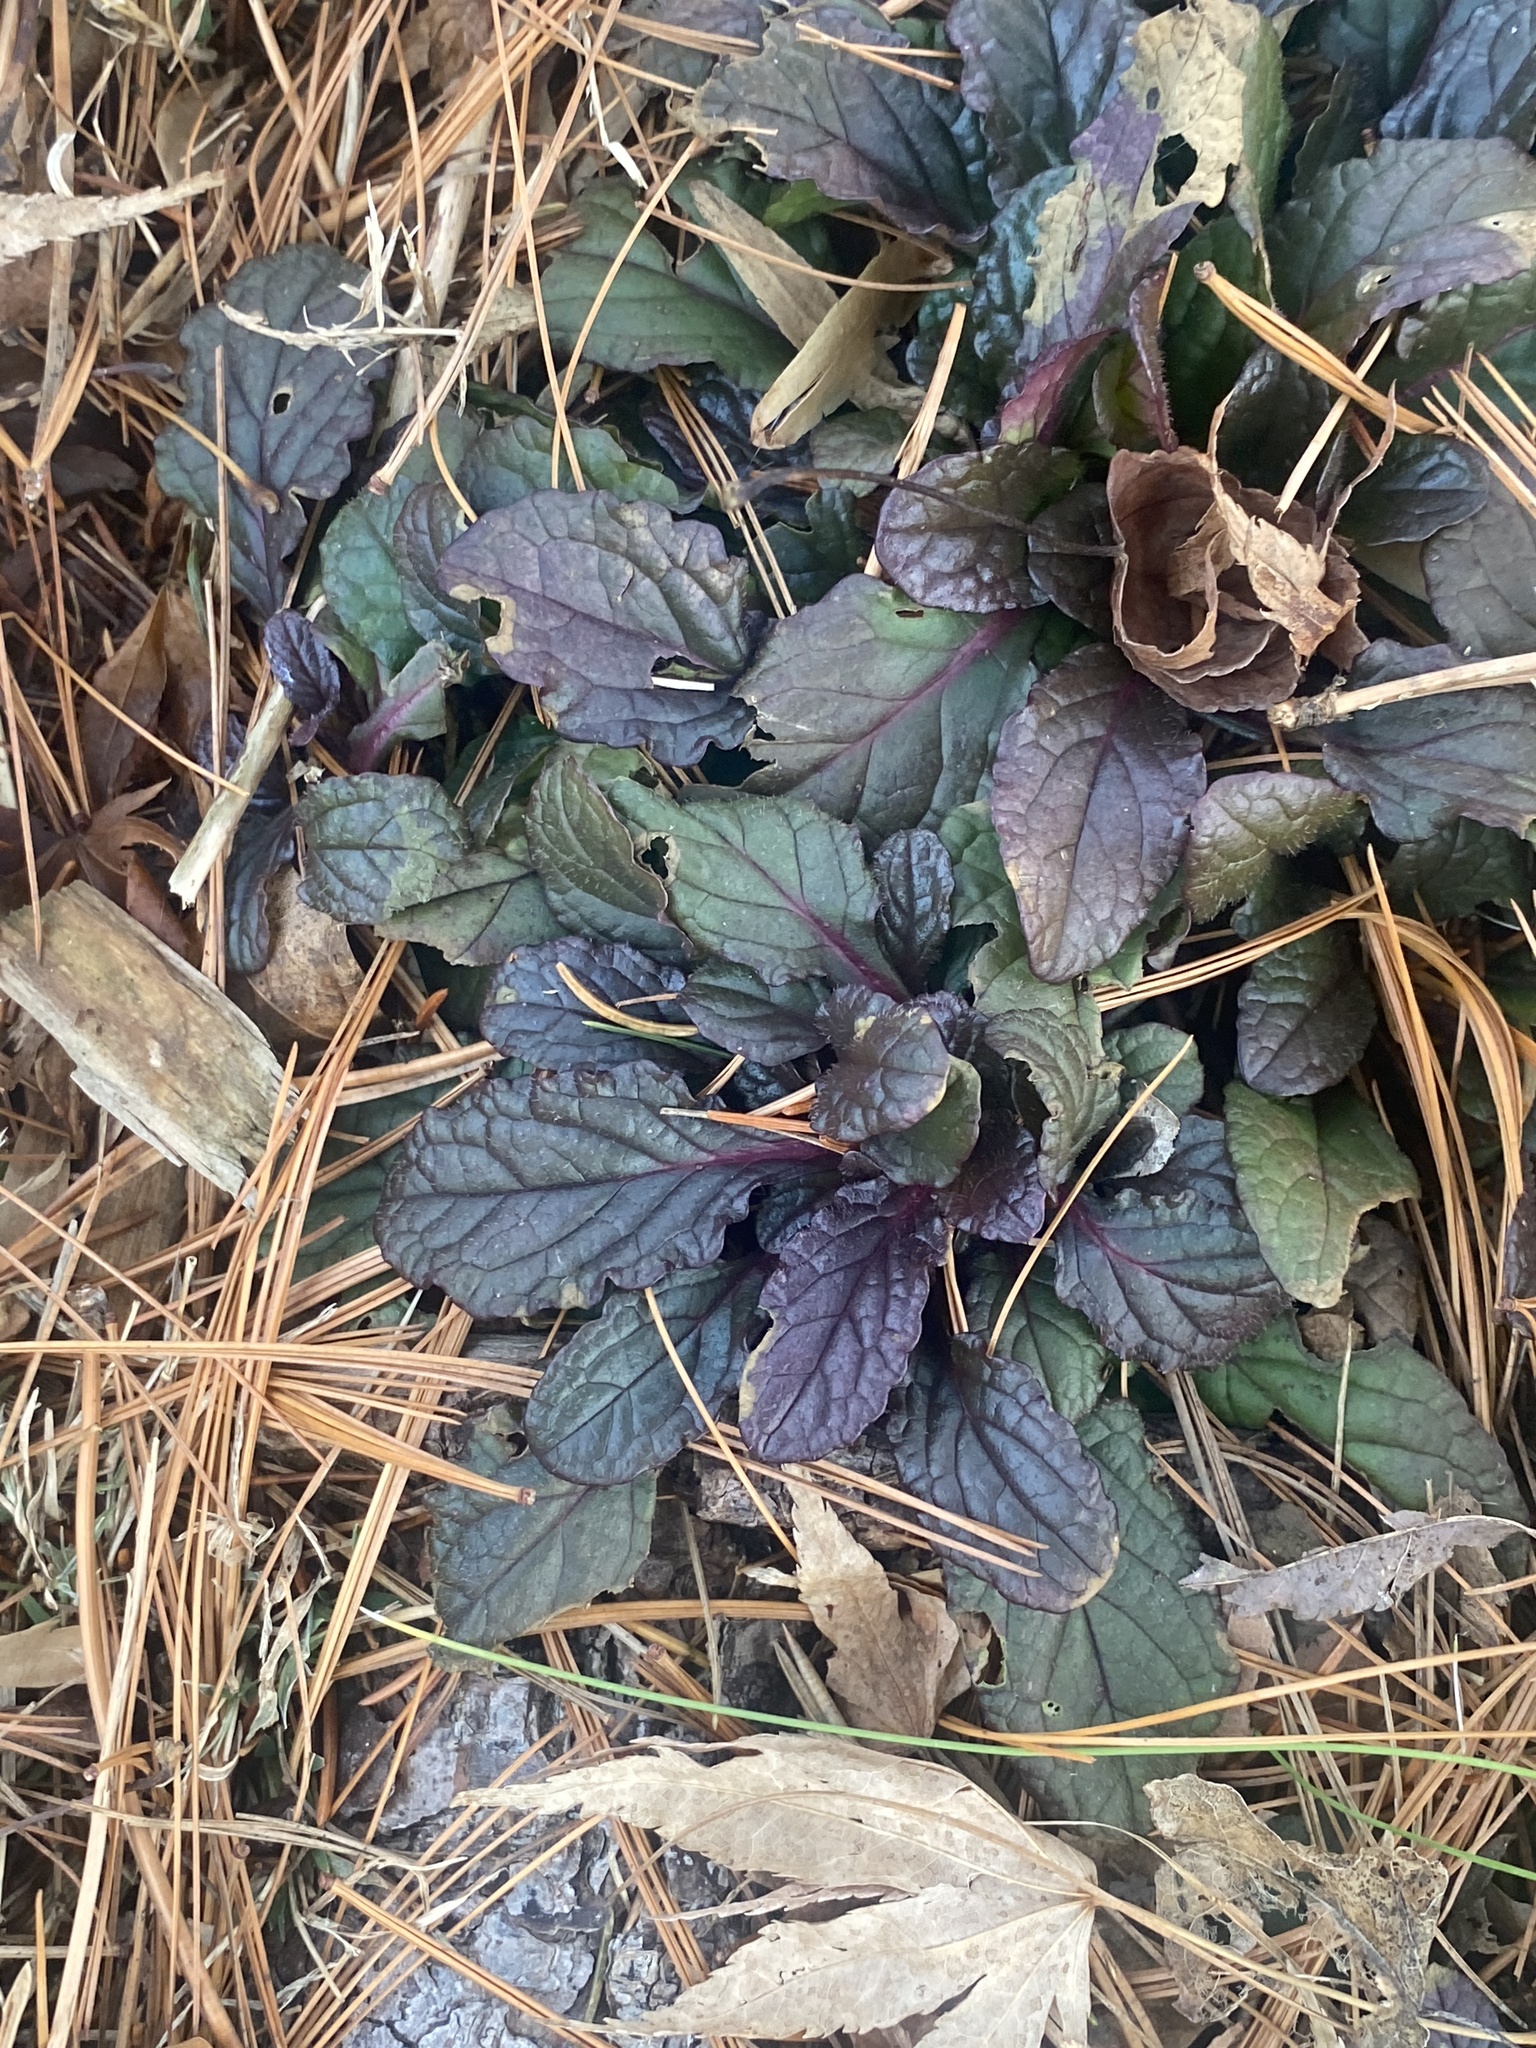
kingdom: Plantae
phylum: Tracheophyta
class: Magnoliopsida
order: Lamiales
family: Lamiaceae
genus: Ajuga
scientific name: Ajuga reptans
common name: Bugle
